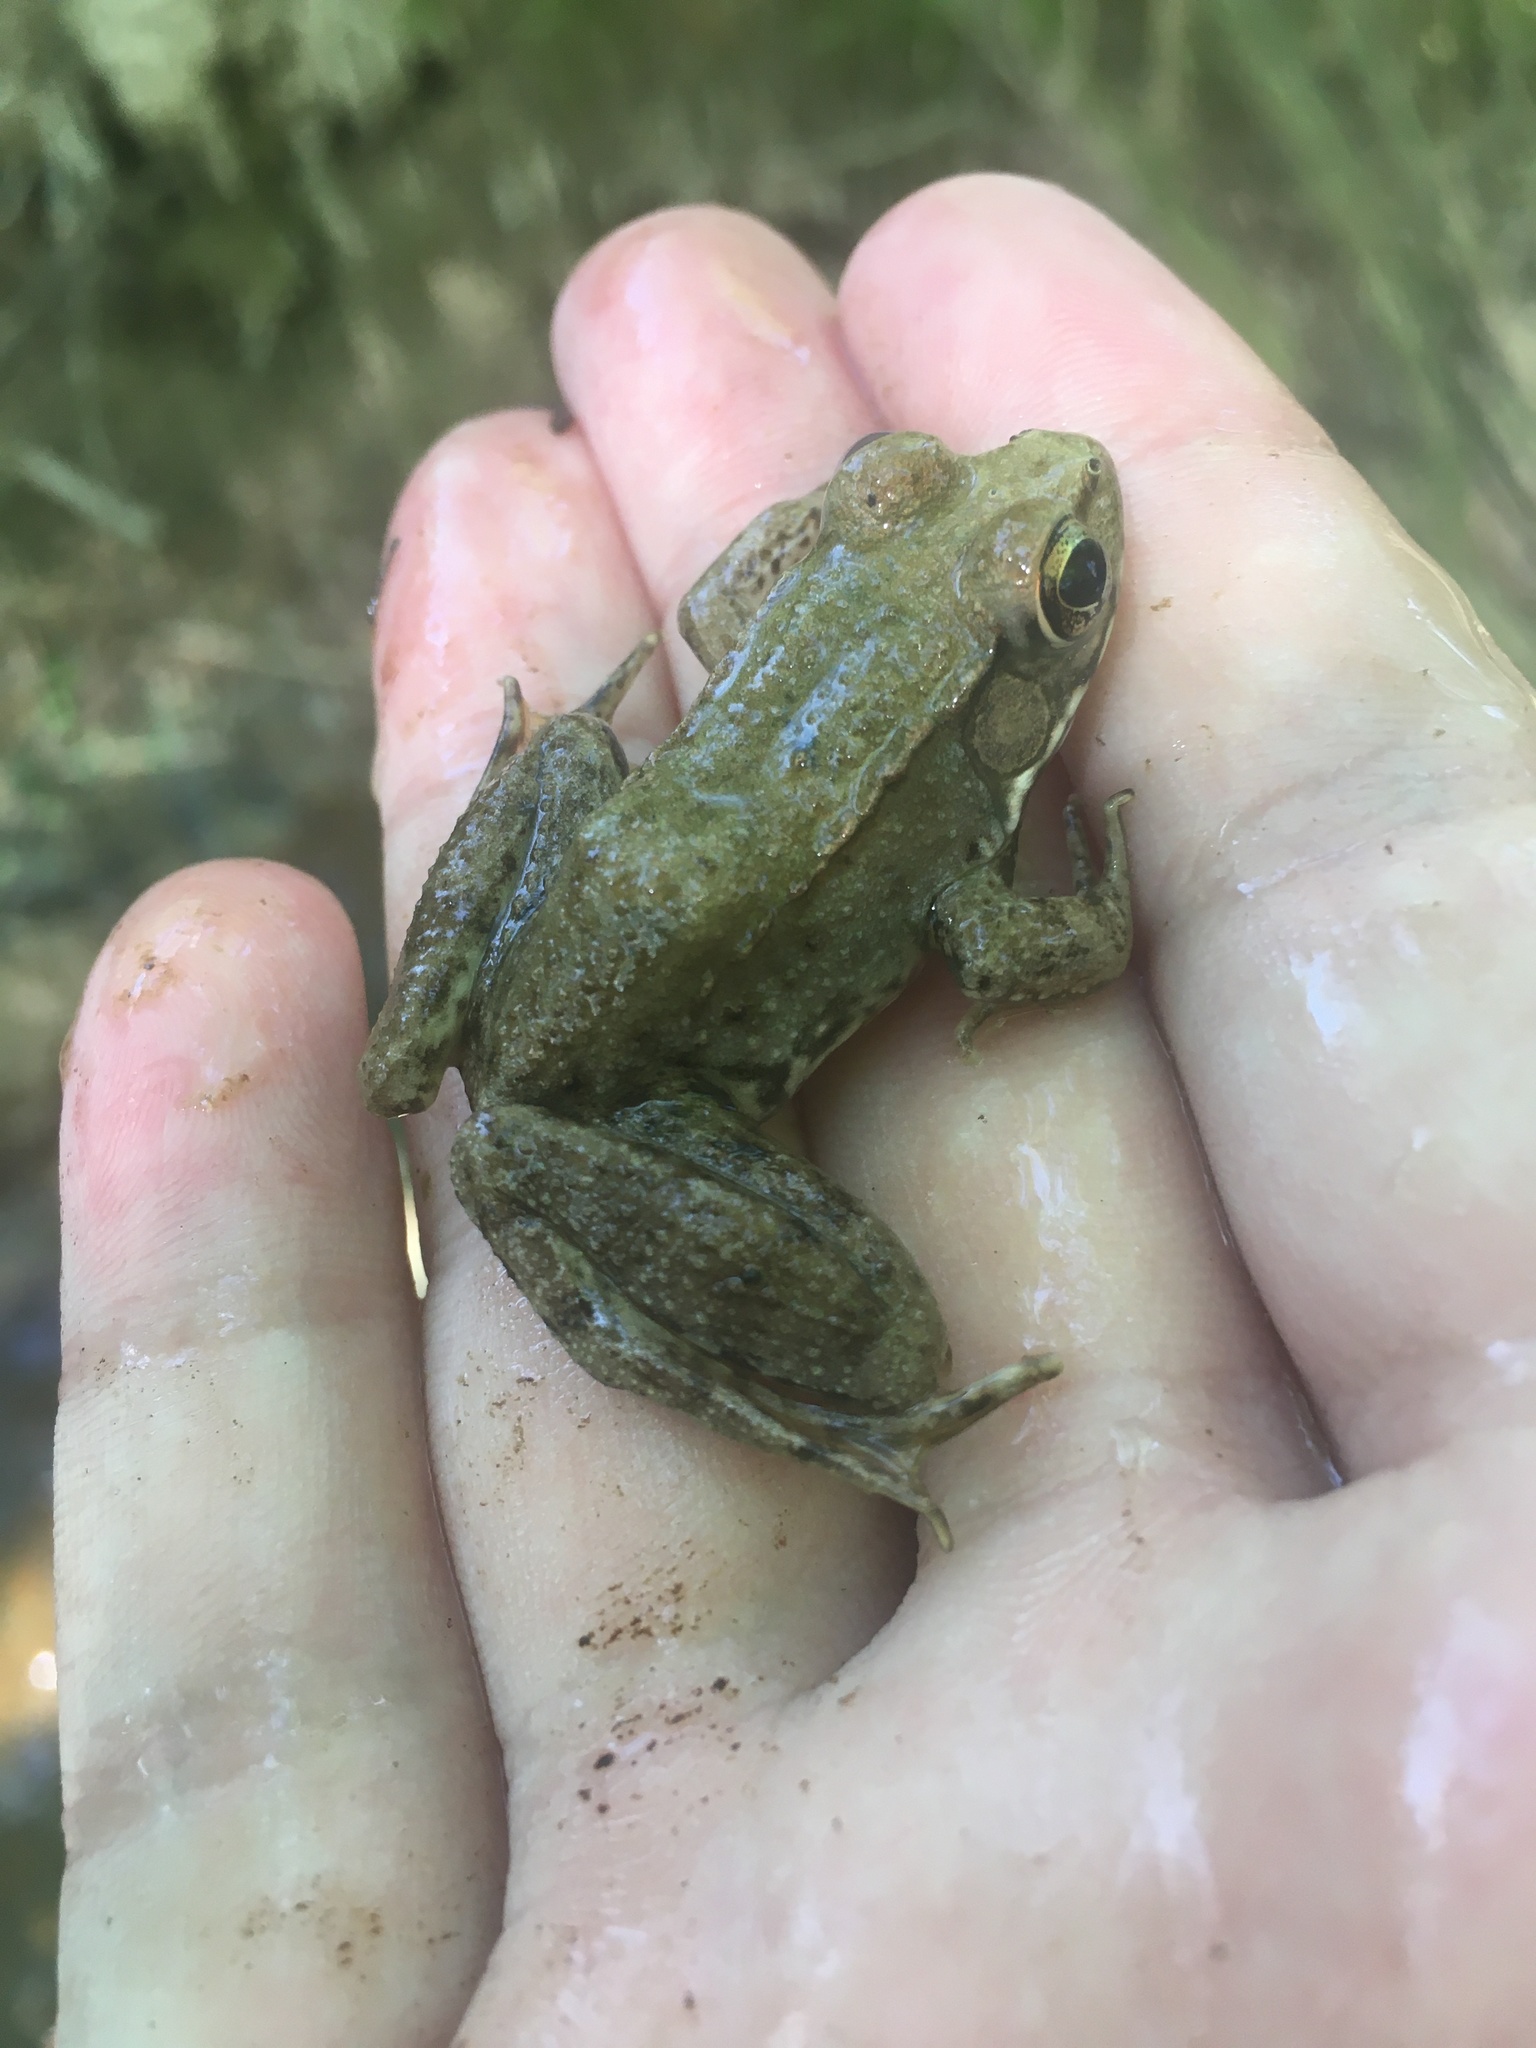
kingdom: Animalia
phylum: Chordata
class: Amphibia
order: Anura
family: Ranidae
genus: Lithobates
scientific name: Lithobates clamitans
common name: Green frog
